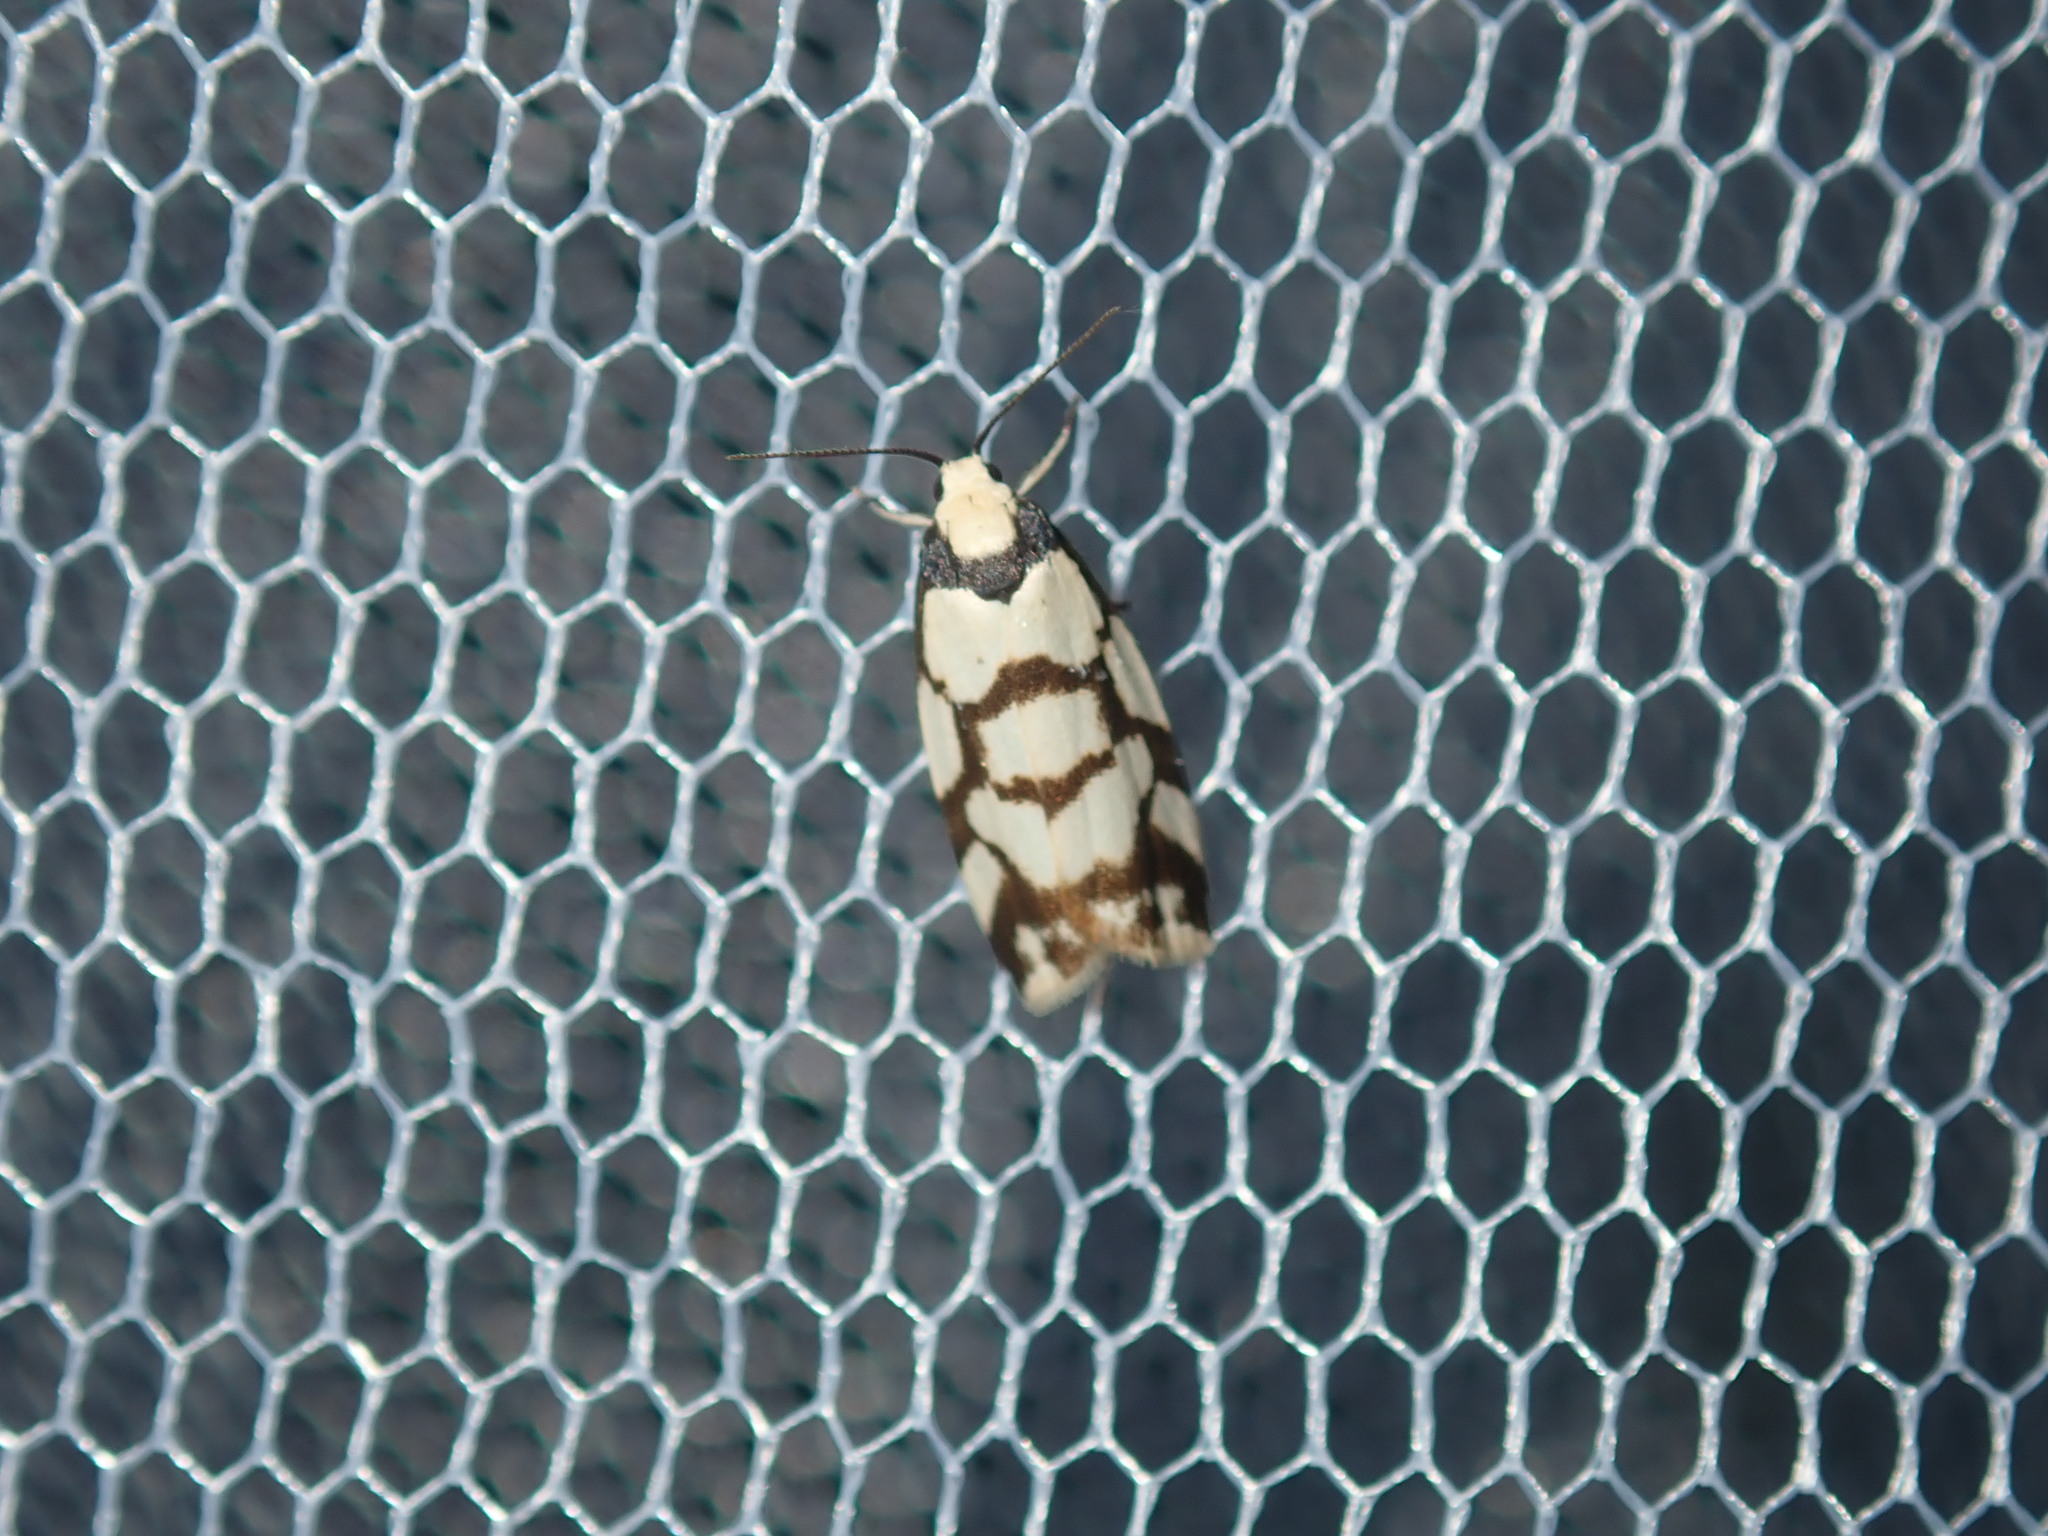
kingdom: Animalia
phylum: Arthropoda
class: Insecta
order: Lepidoptera
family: Erebidae
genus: Scaptesyle
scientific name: Scaptesyle dichotoma
